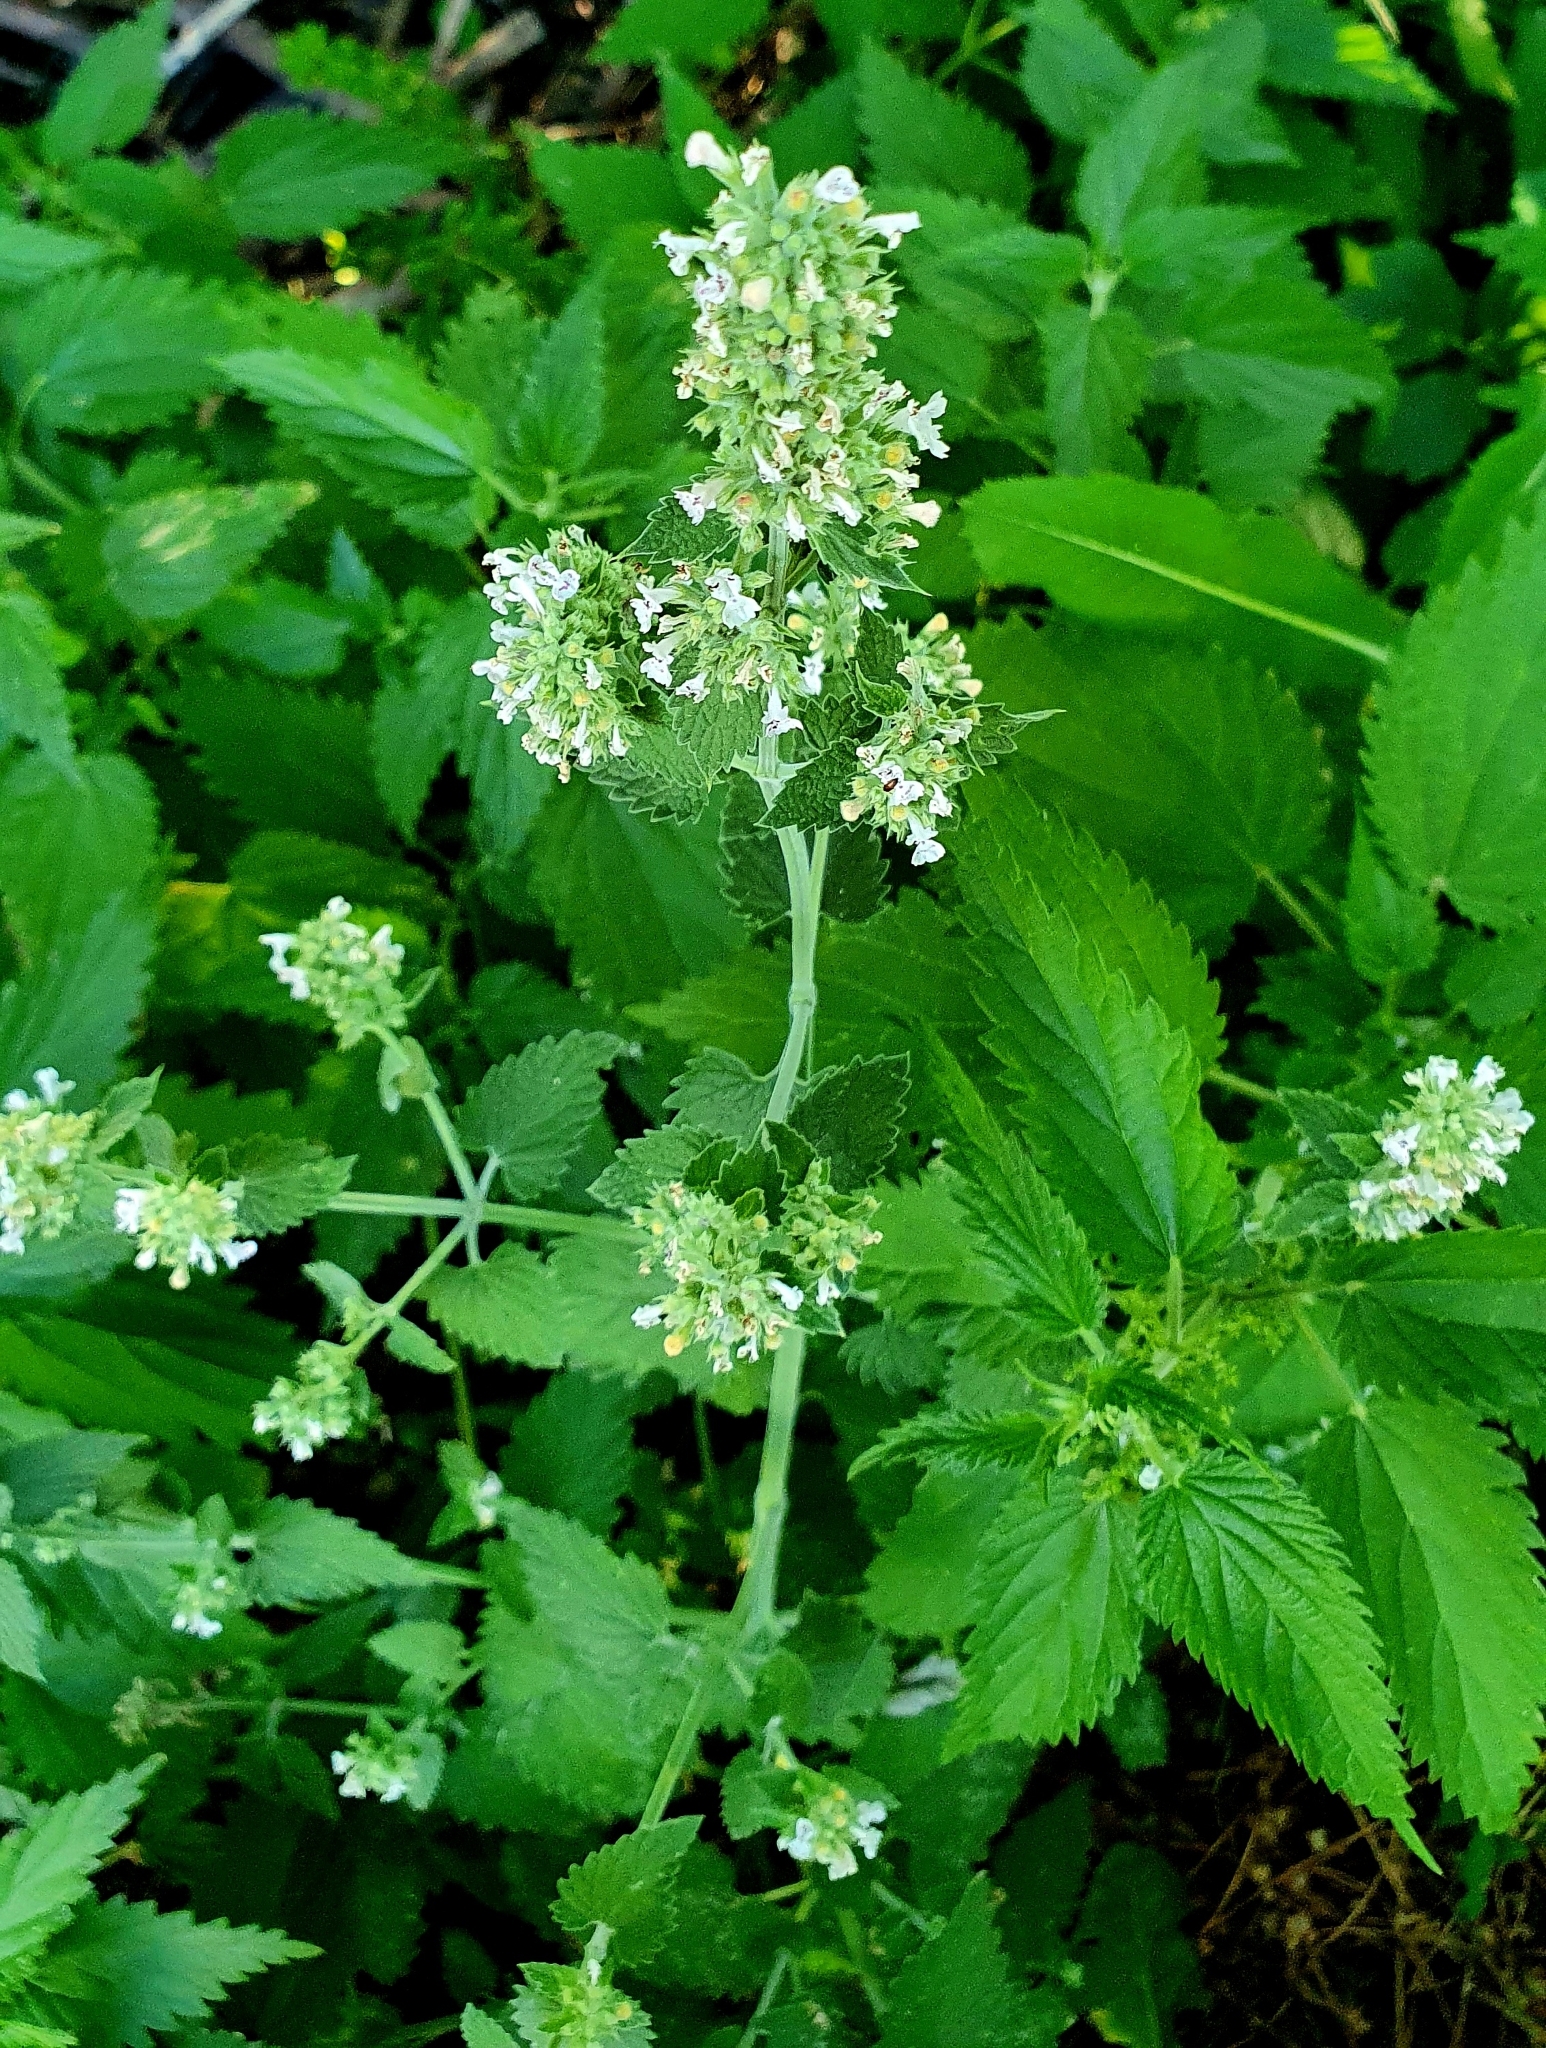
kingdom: Plantae
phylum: Tracheophyta
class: Magnoliopsida
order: Lamiales
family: Lamiaceae
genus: Nepeta
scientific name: Nepeta cataria
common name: Catnip
